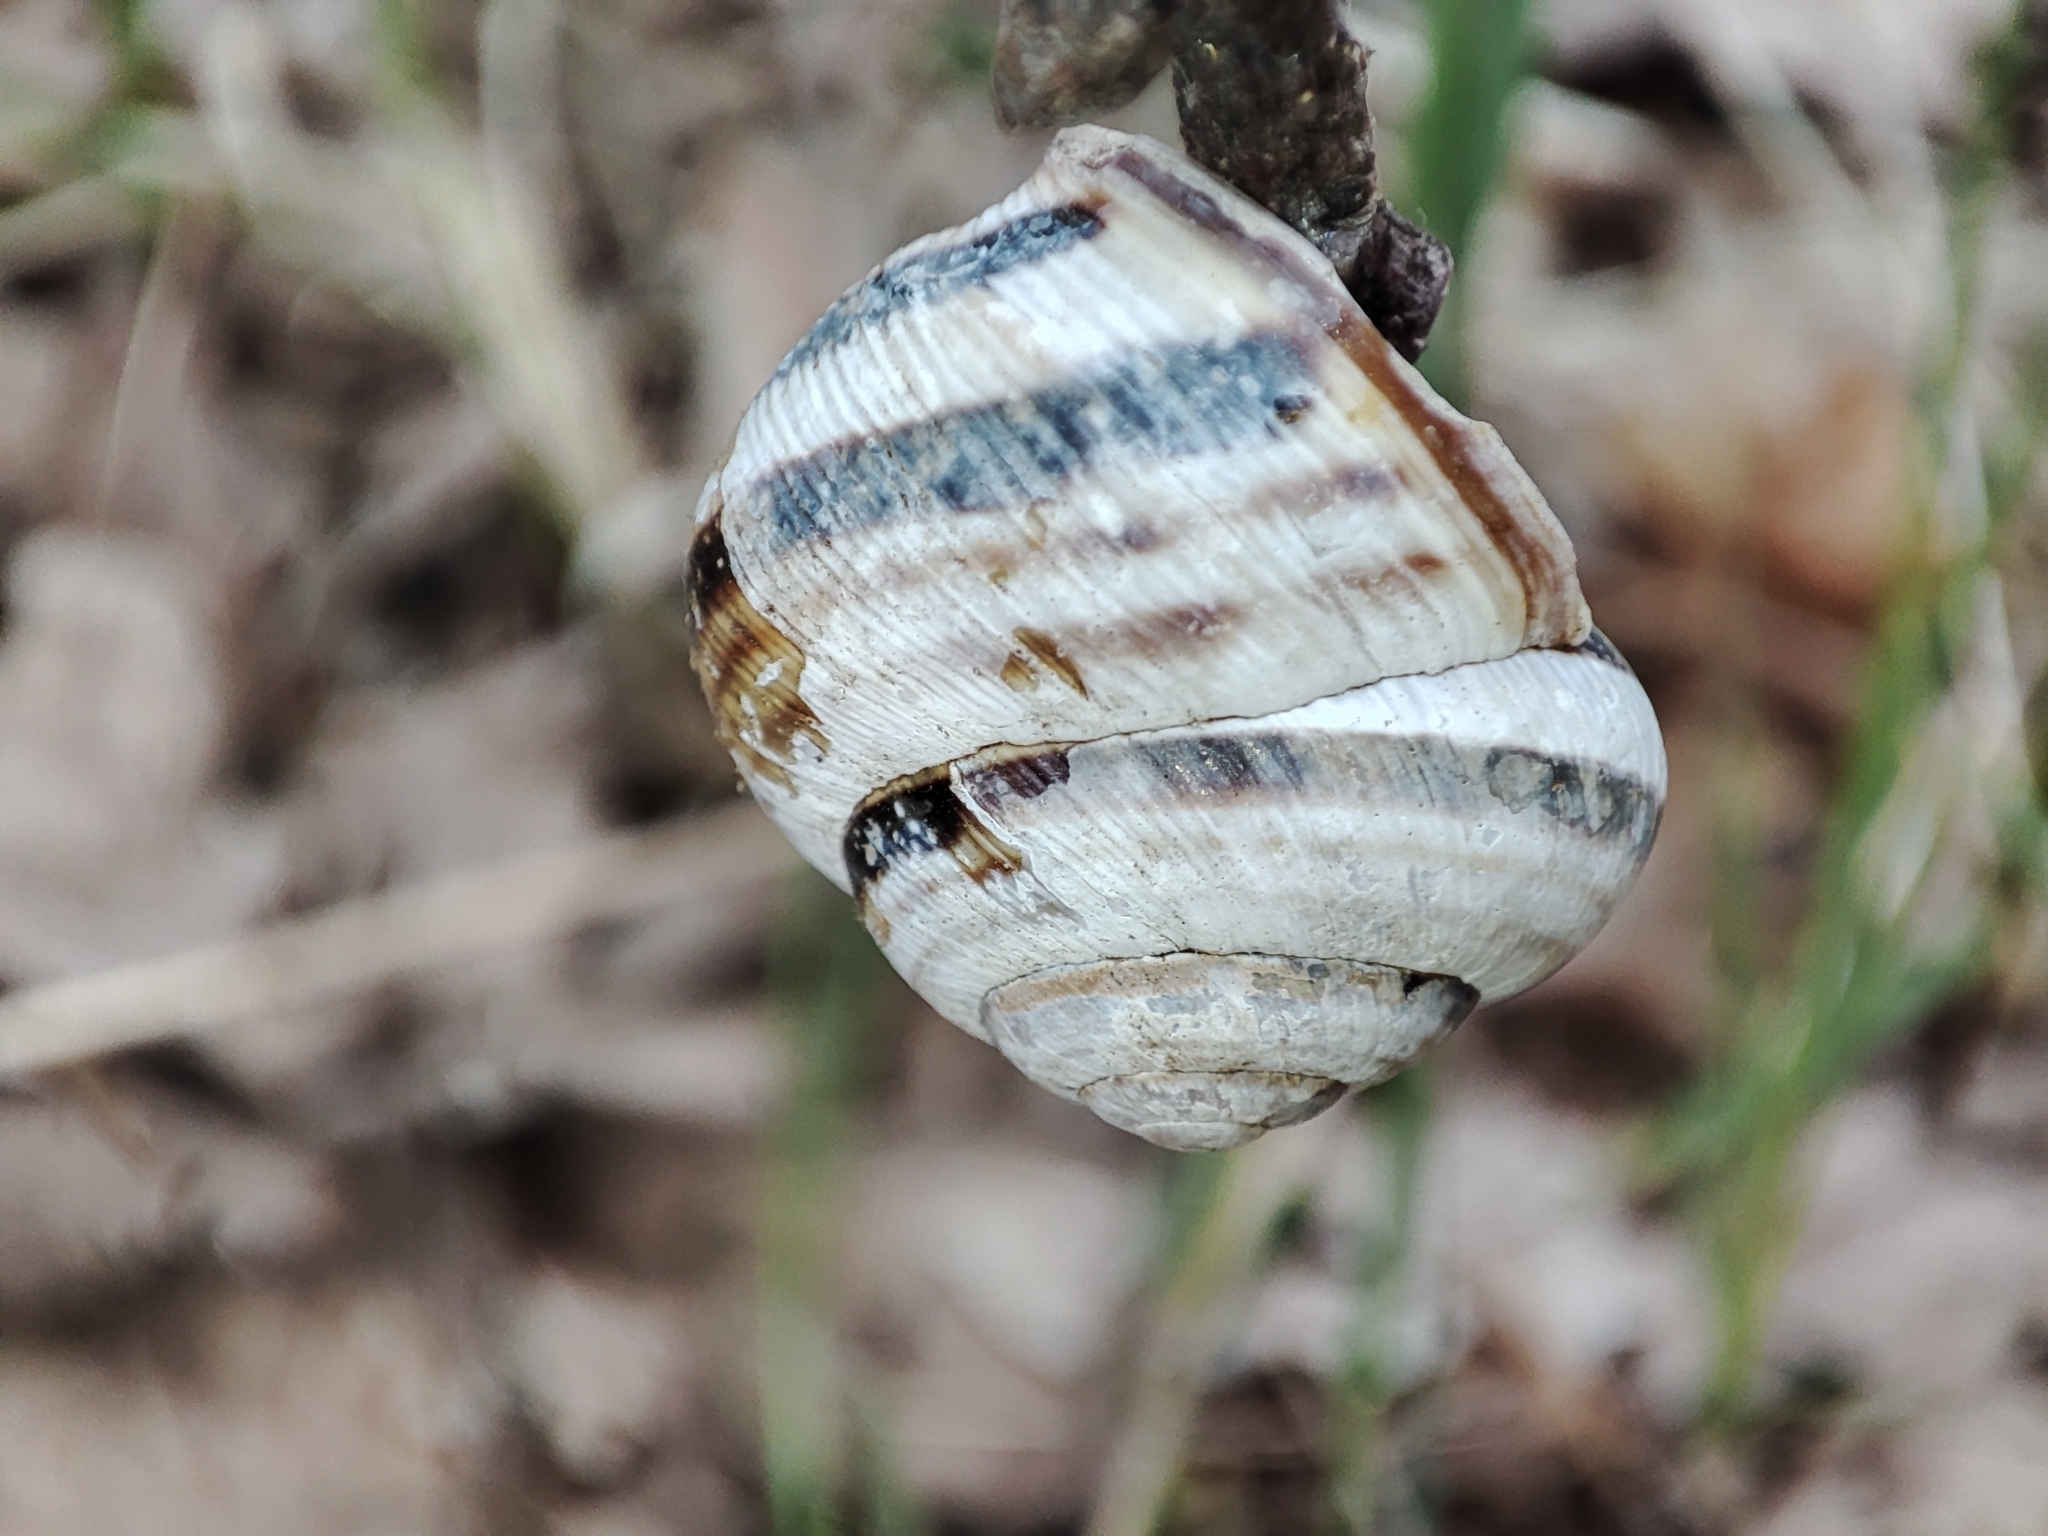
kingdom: Animalia
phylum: Mollusca
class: Gastropoda
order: Stylommatophora
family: Helicidae
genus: Caucasotachea
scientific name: Caucasotachea vindobonensis
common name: European helicid land snail
